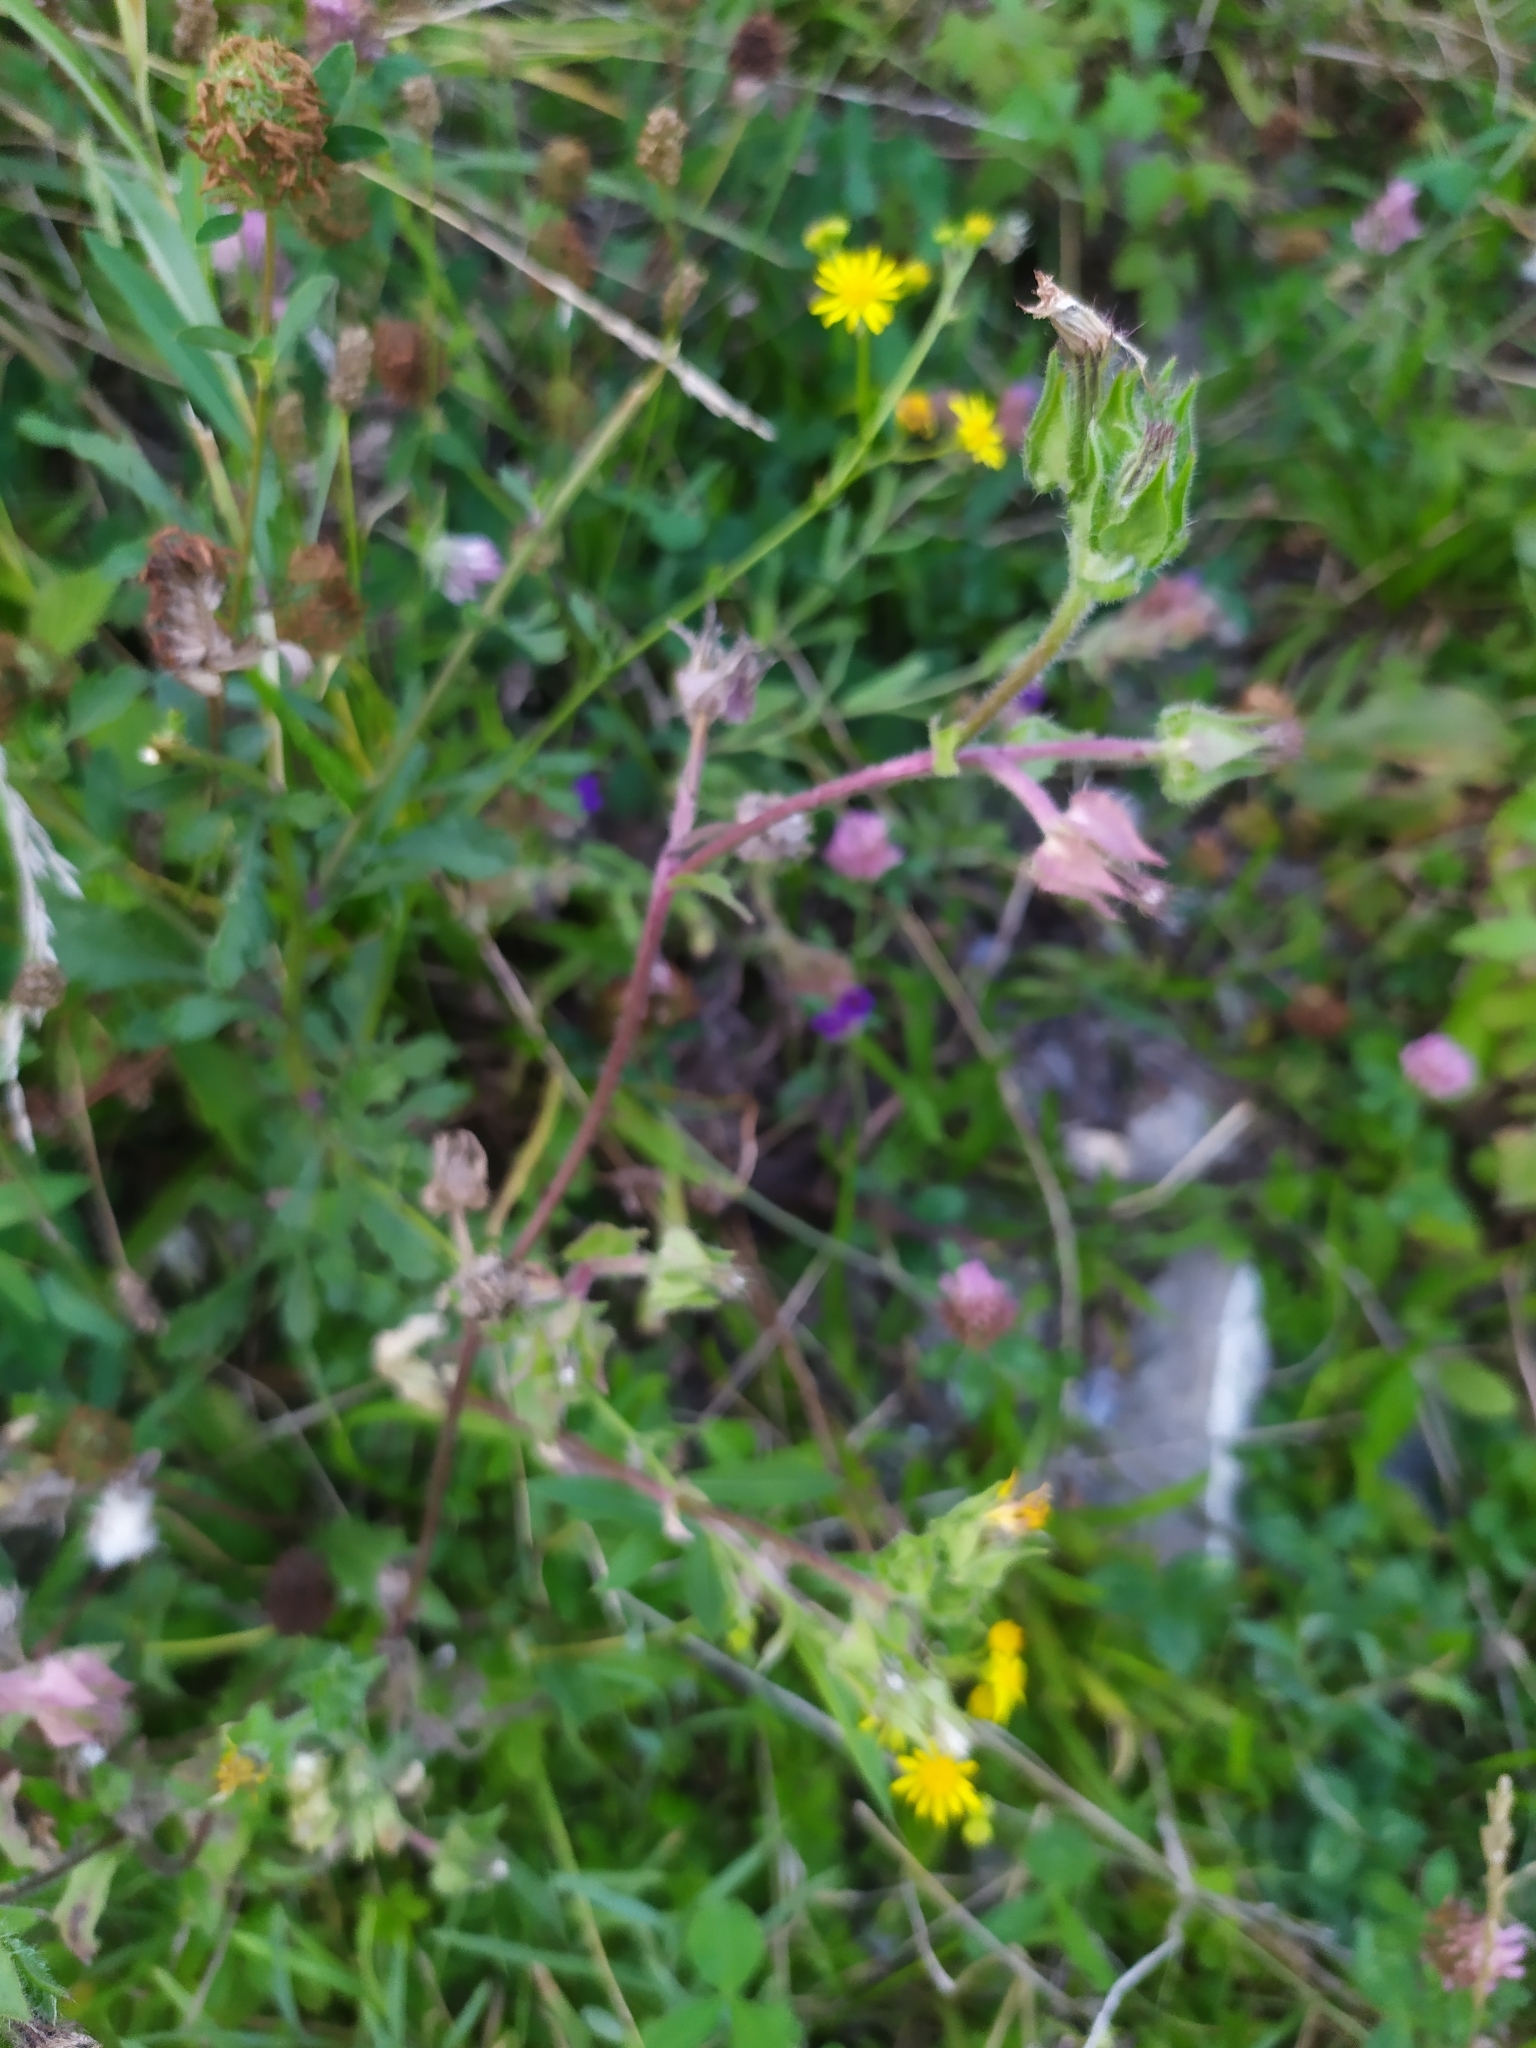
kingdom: Plantae
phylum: Tracheophyta
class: Magnoliopsida
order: Asterales
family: Asteraceae
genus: Helminthotheca
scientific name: Helminthotheca echioides
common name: Ox-tongue
